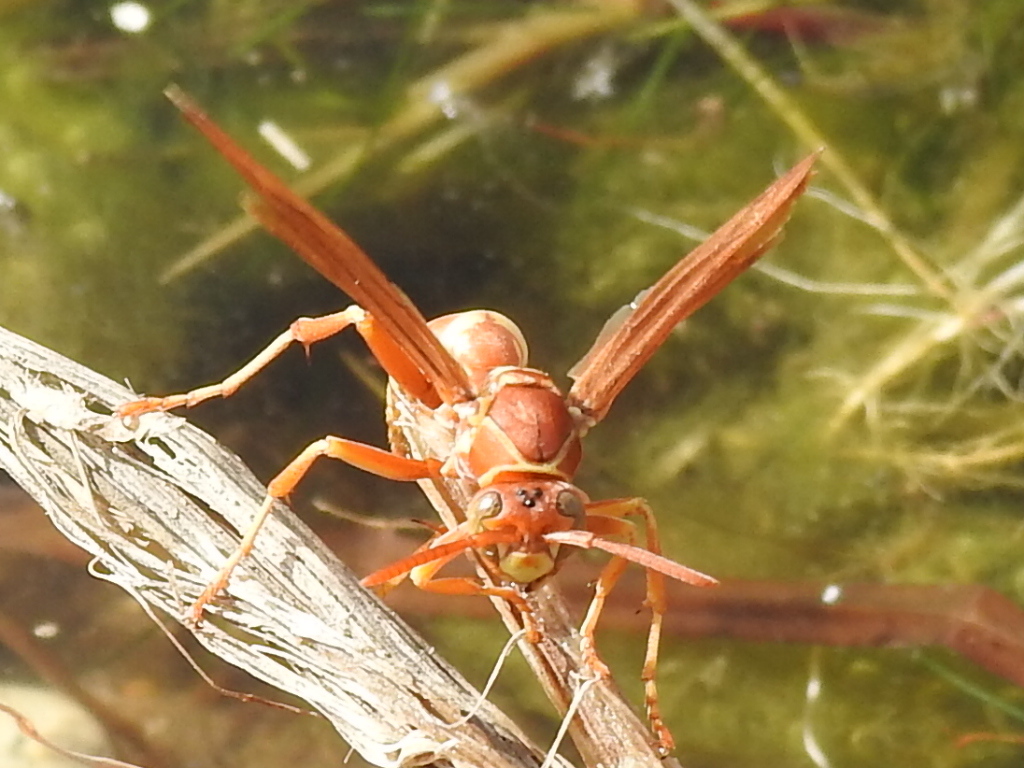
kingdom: Animalia
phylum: Arthropoda
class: Insecta
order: Hymenoptera
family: Eumenidae
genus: Polistes
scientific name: Polistes apachus
